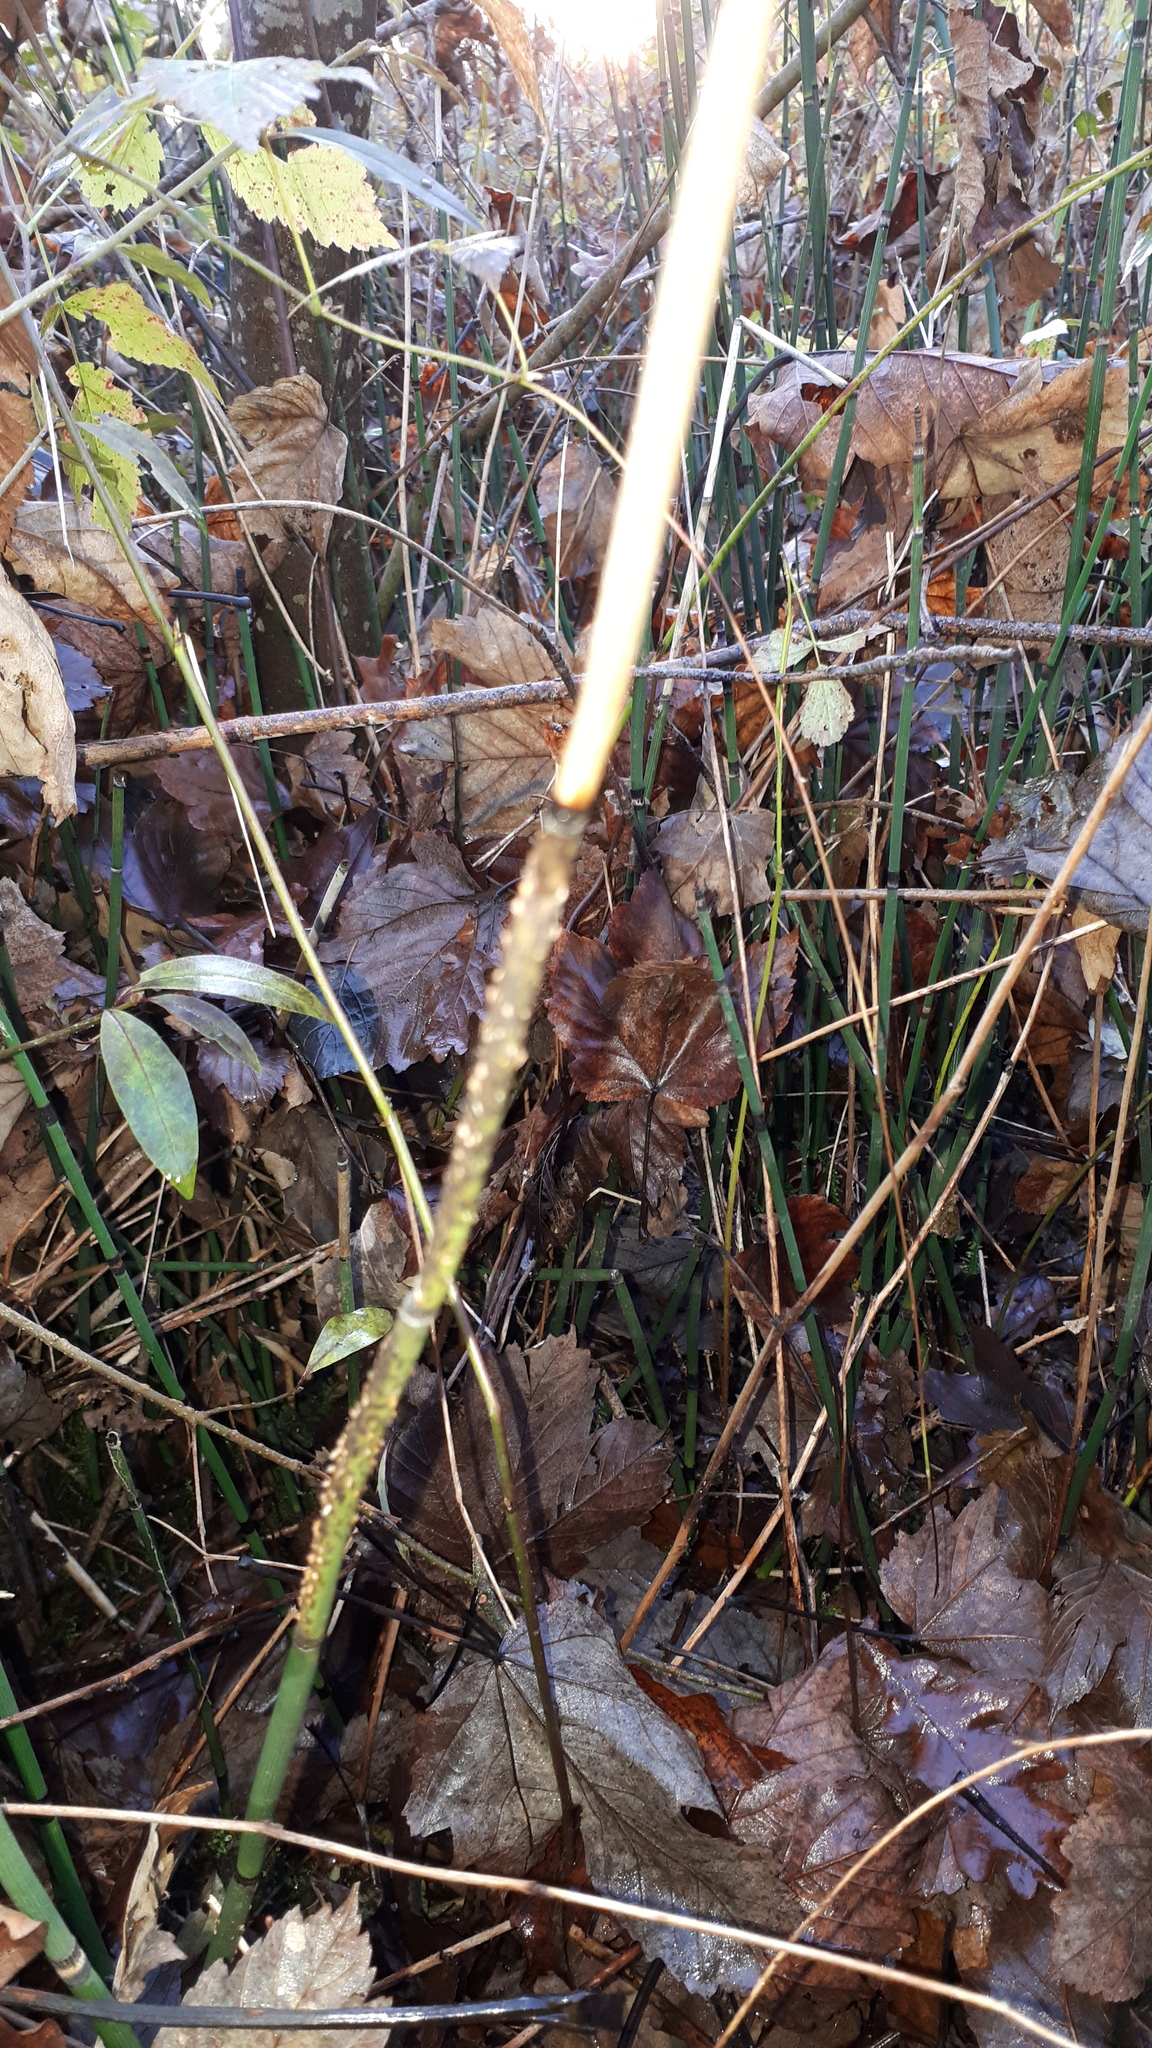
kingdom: Fungi
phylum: Ascomycota
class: Leotiomycetes
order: Helotiales
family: Helotiaceae
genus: Stamnaria
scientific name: Stamnaria americana
